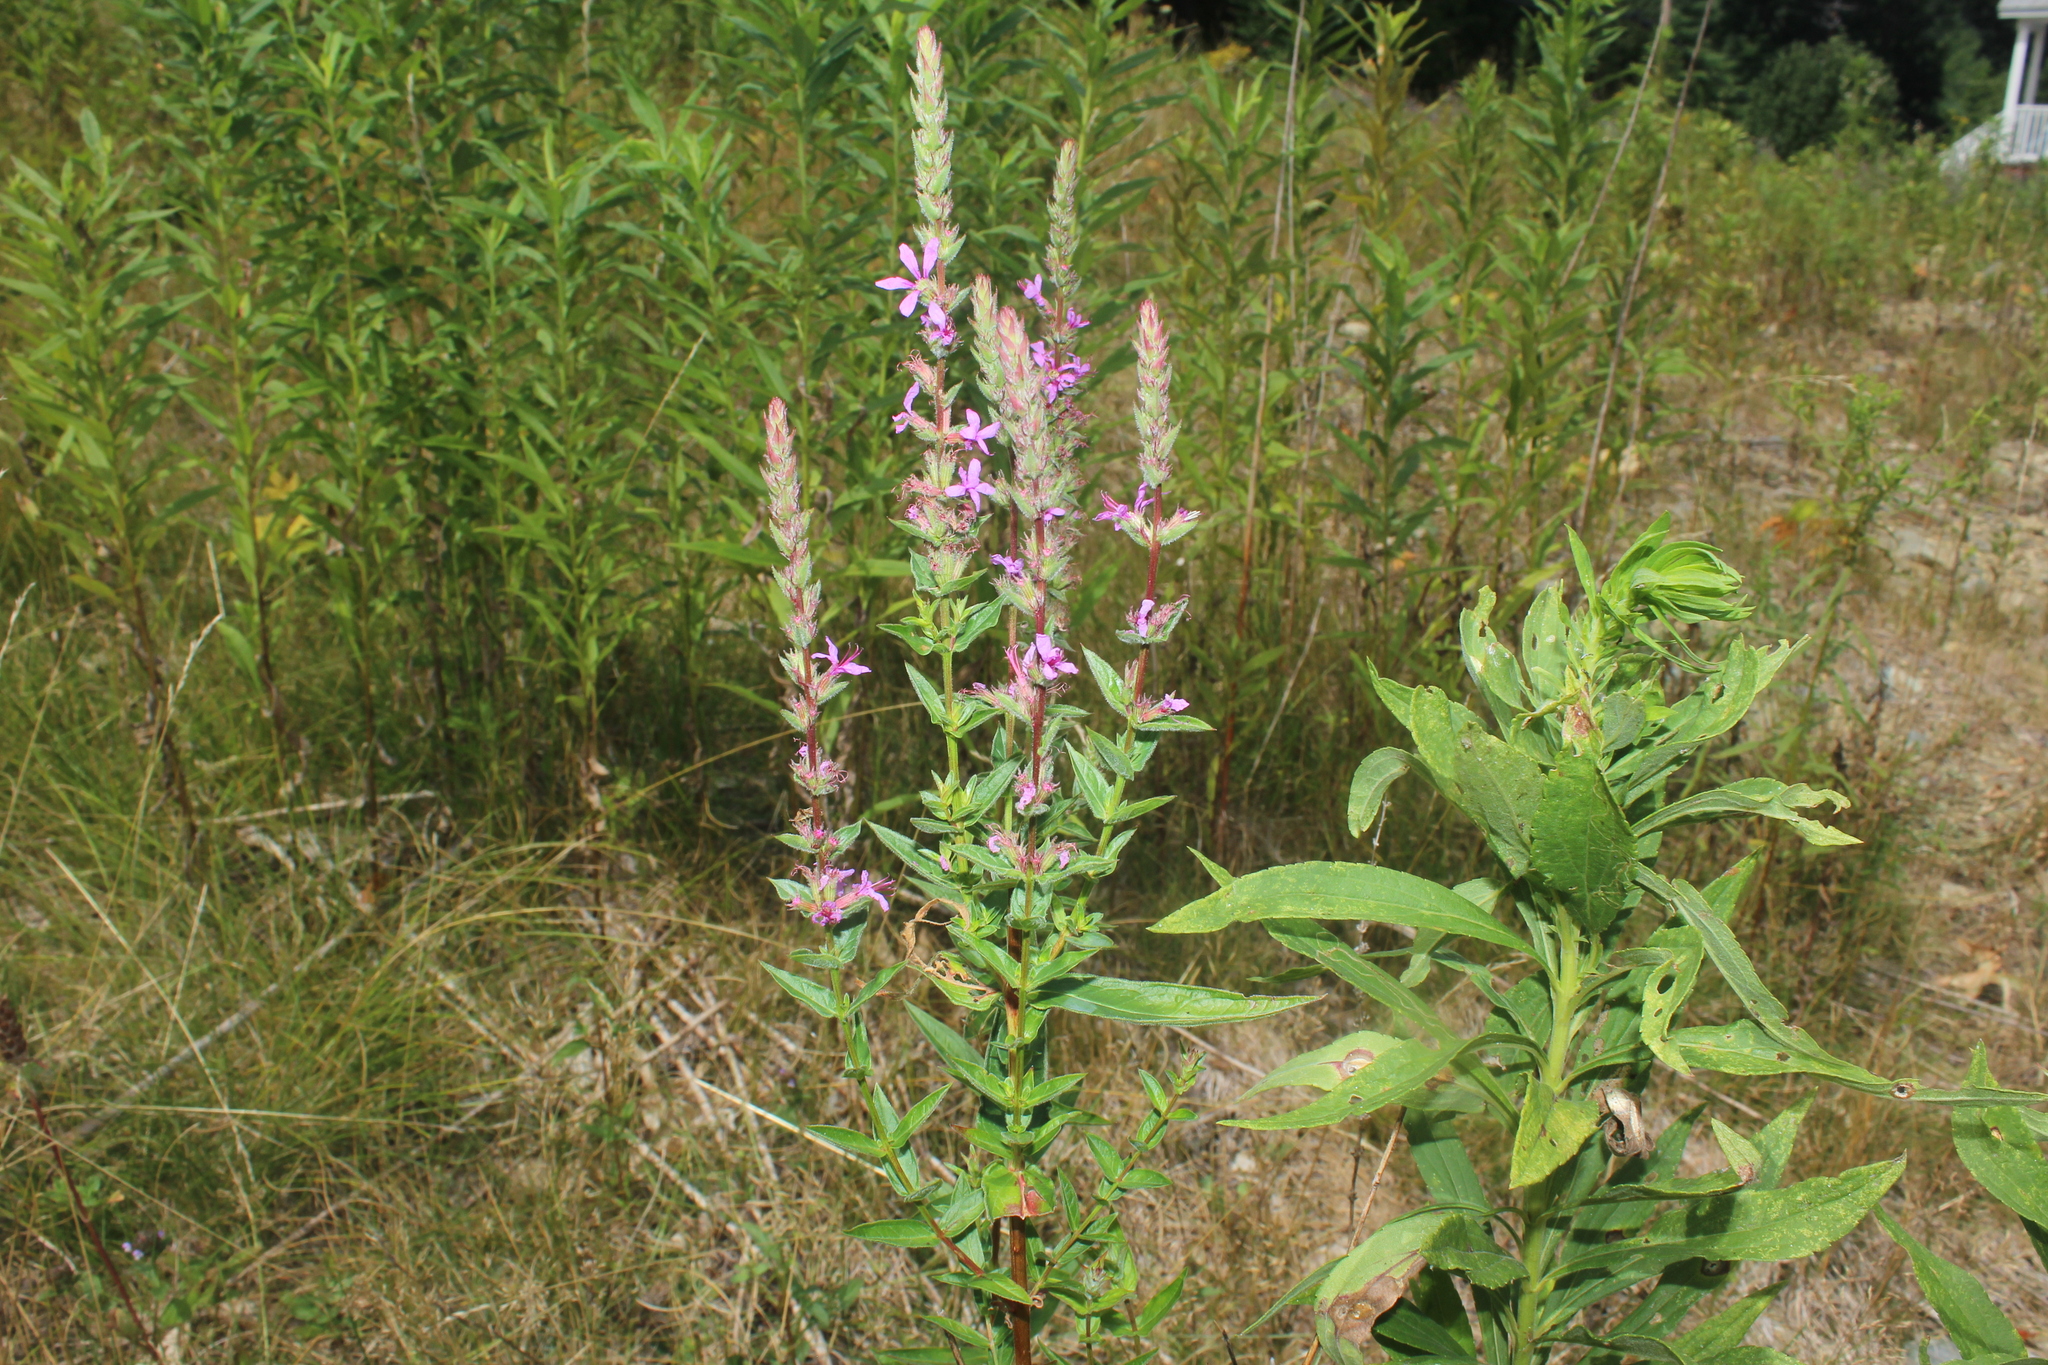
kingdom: Plantae
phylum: Tracheophyta
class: Magnoliopsida
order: Myrtales
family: Lythraceae
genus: Lythrum
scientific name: Lythrum salicaria
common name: Purple loosestrife
